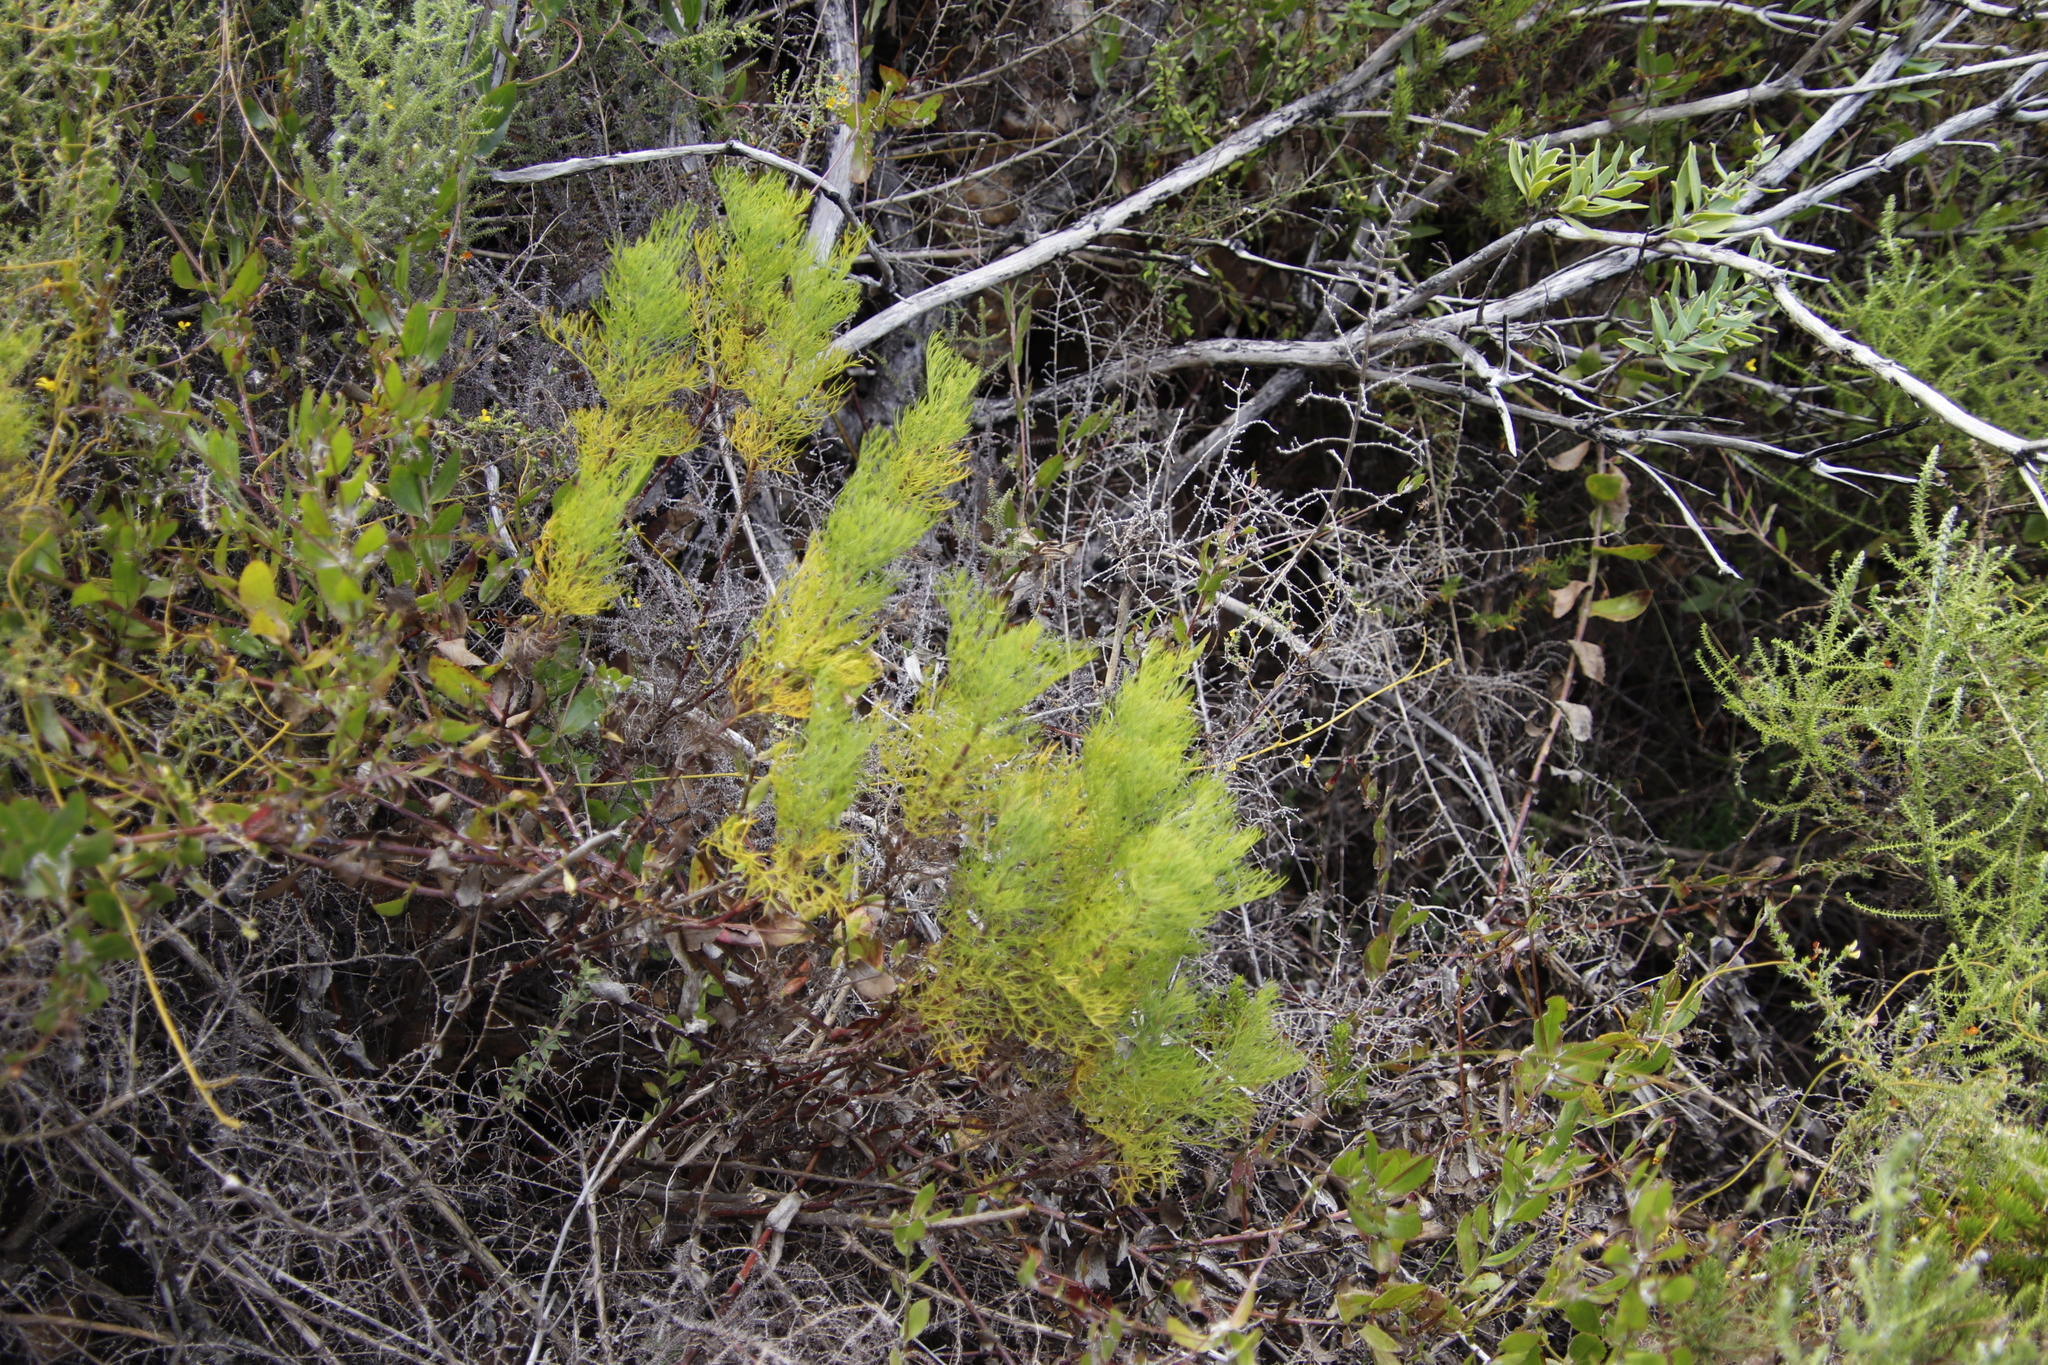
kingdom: Plantae
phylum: Tracheophyta
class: Magnoliopsida
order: Apiales
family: Apiaceae
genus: Notobubon
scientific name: Notobubon ferulaceum
